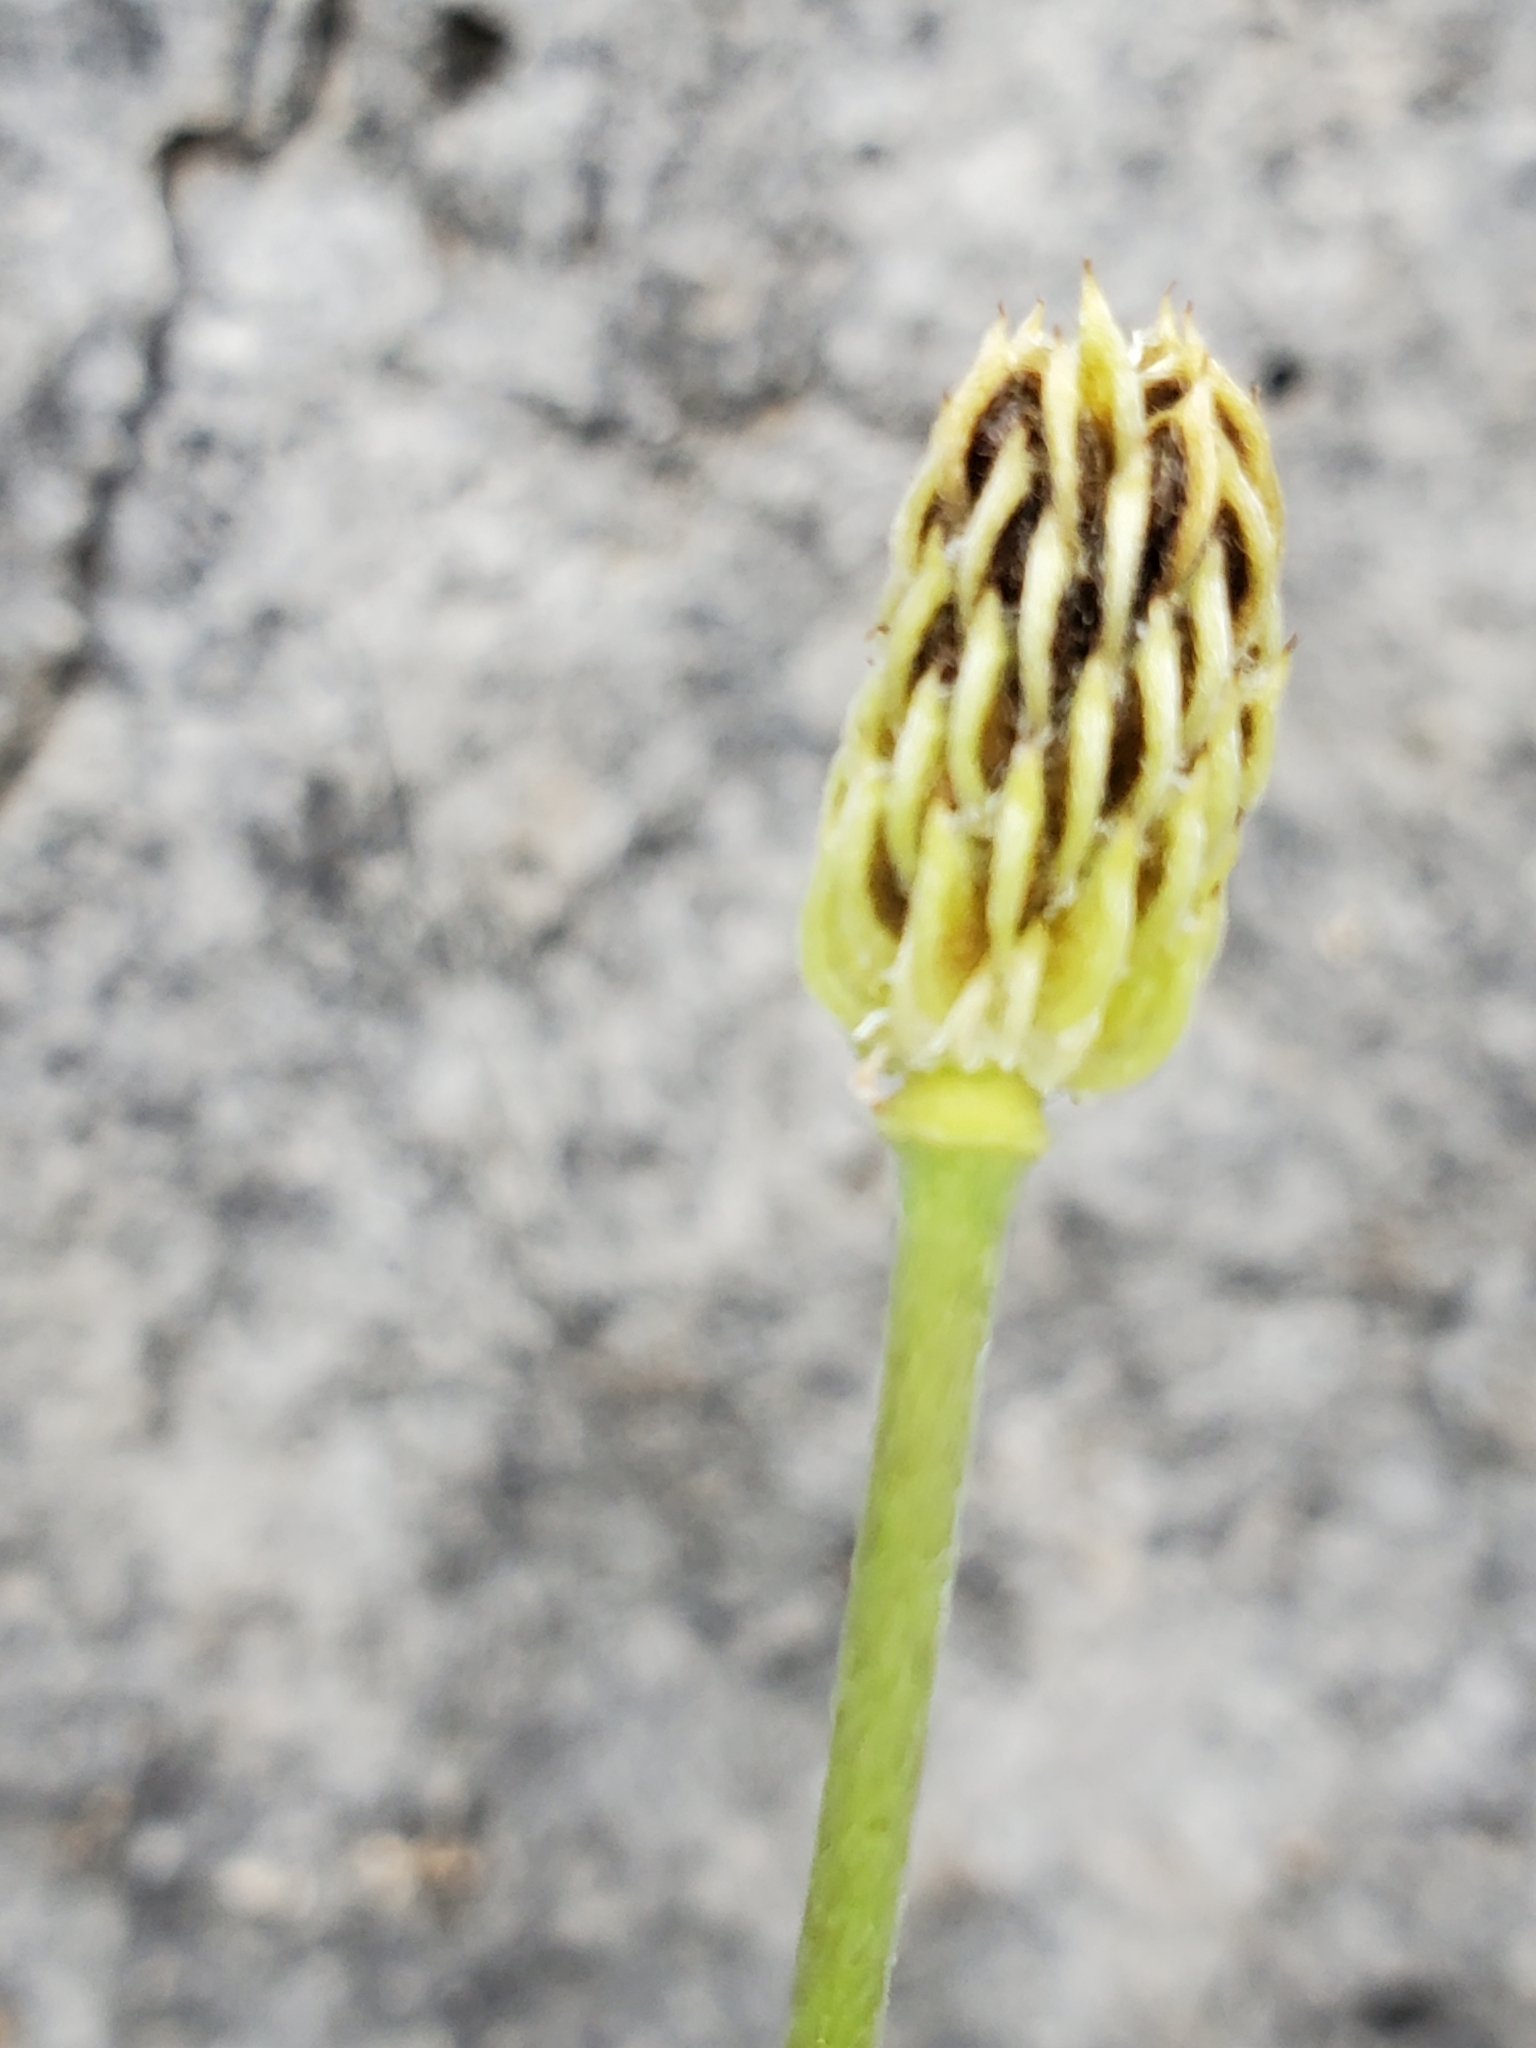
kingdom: Plantae
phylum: Tracheophyta
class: Magnoliopsida
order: Ranunculales
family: Ranunculaceae
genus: Anemone
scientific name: Anemone edwardsiana
